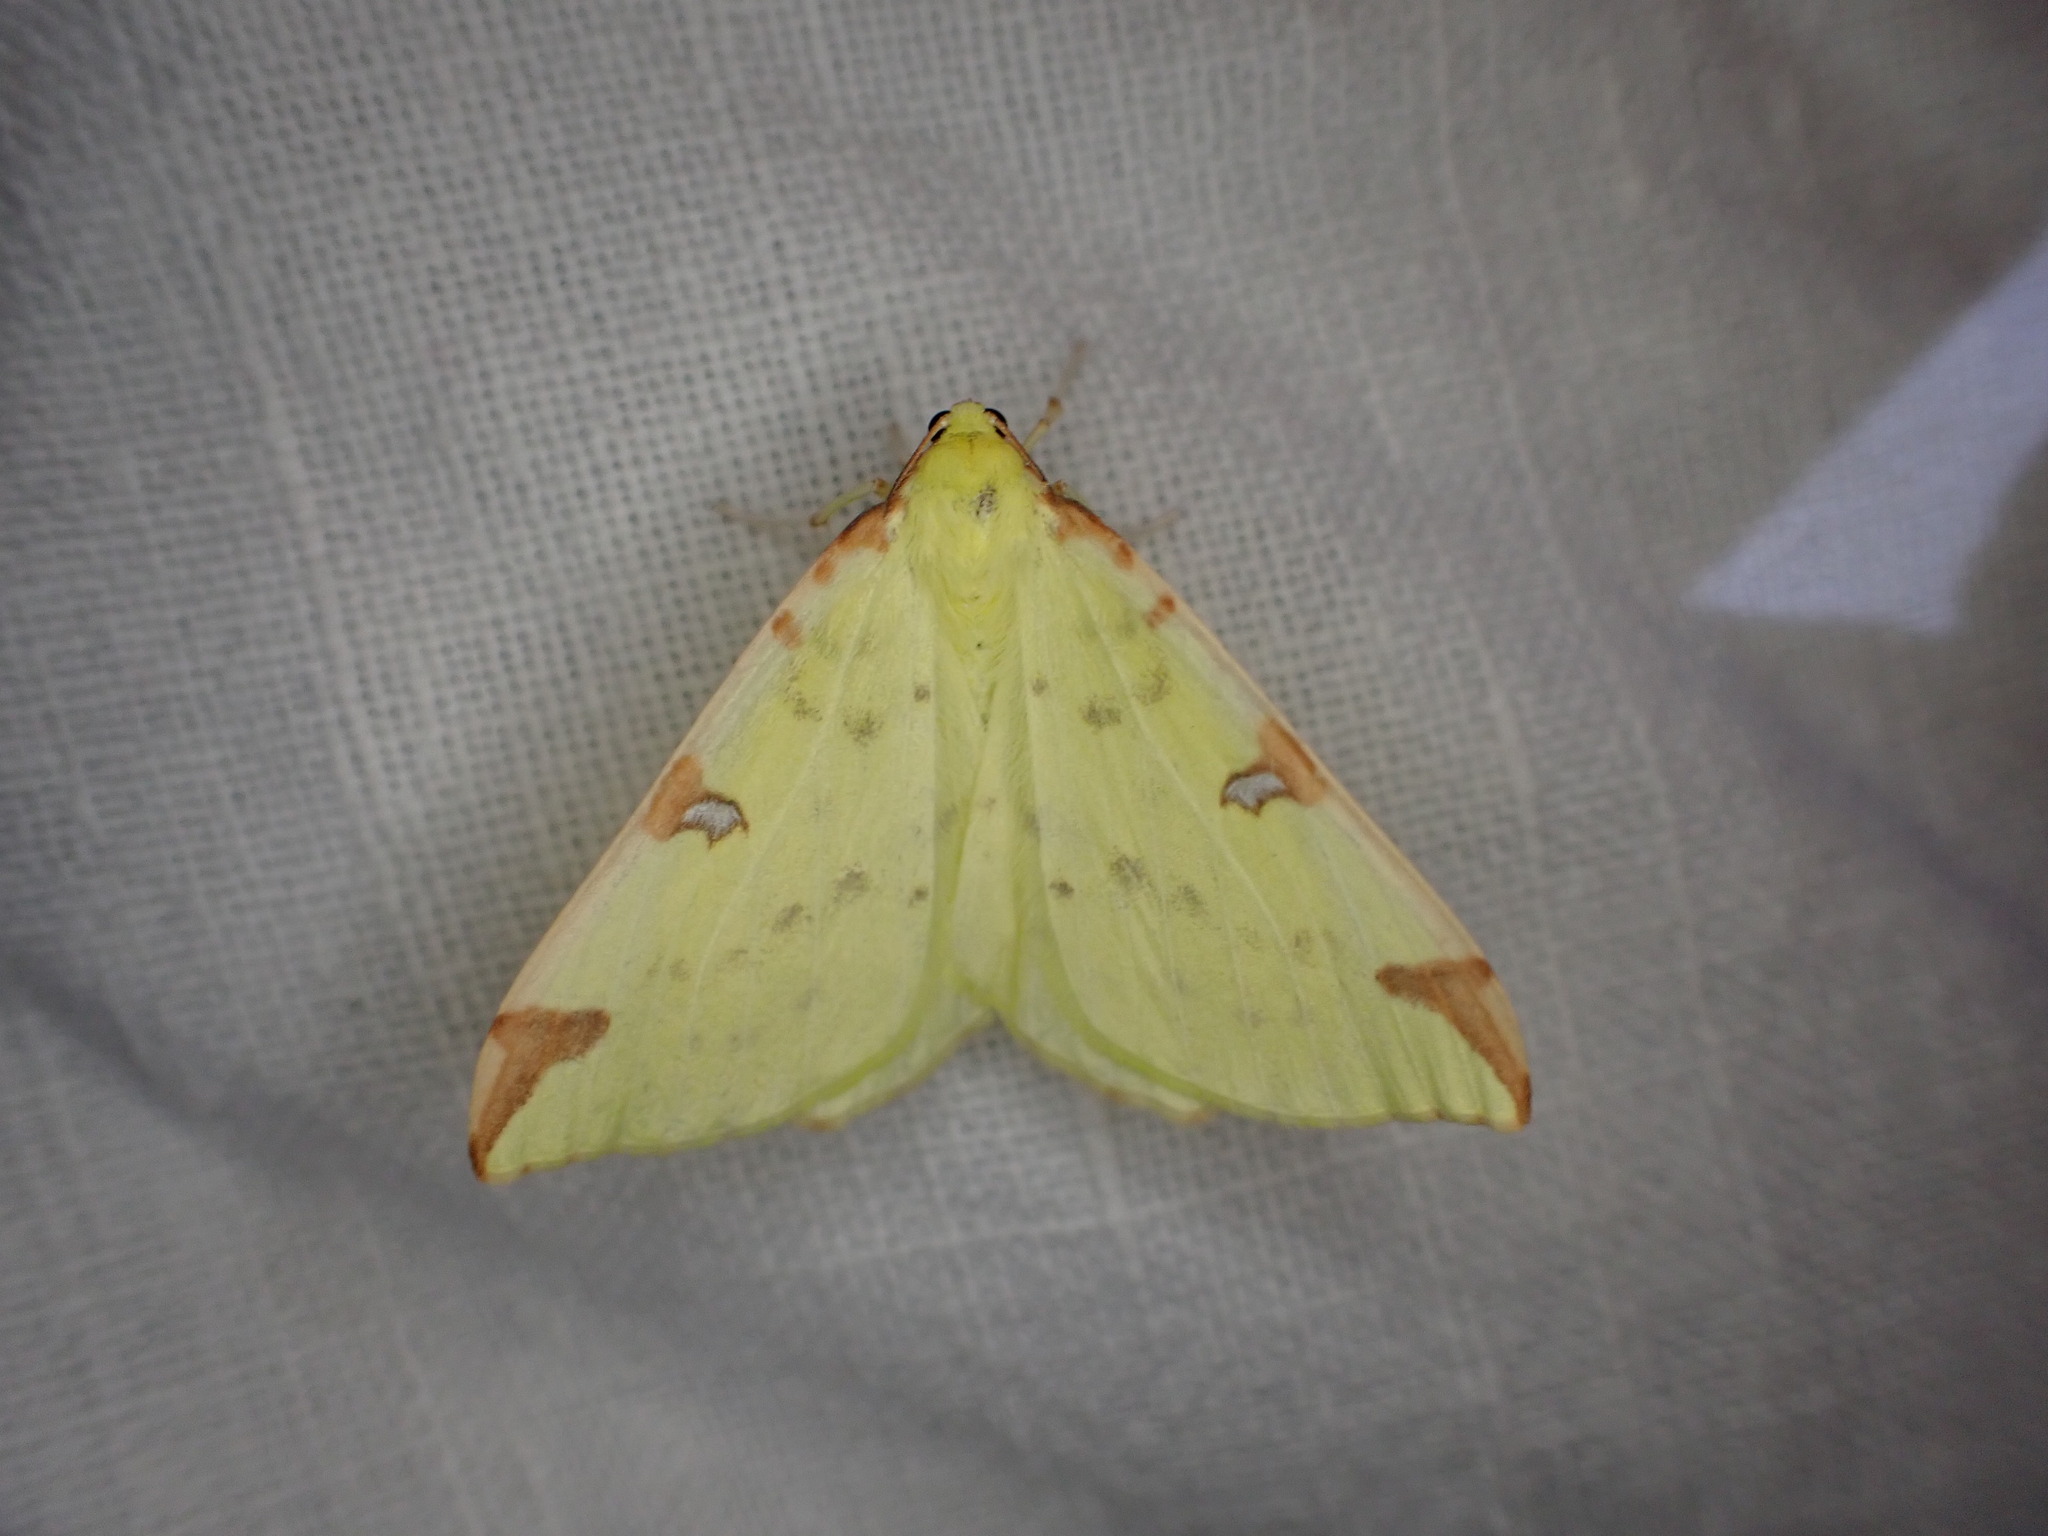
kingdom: Animalia
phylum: Arthropoda
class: Insecta
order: Lepidoptera
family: Geometridae
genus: Opisthograptis
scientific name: Opisthograptis luteolata
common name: Brimstone moth
